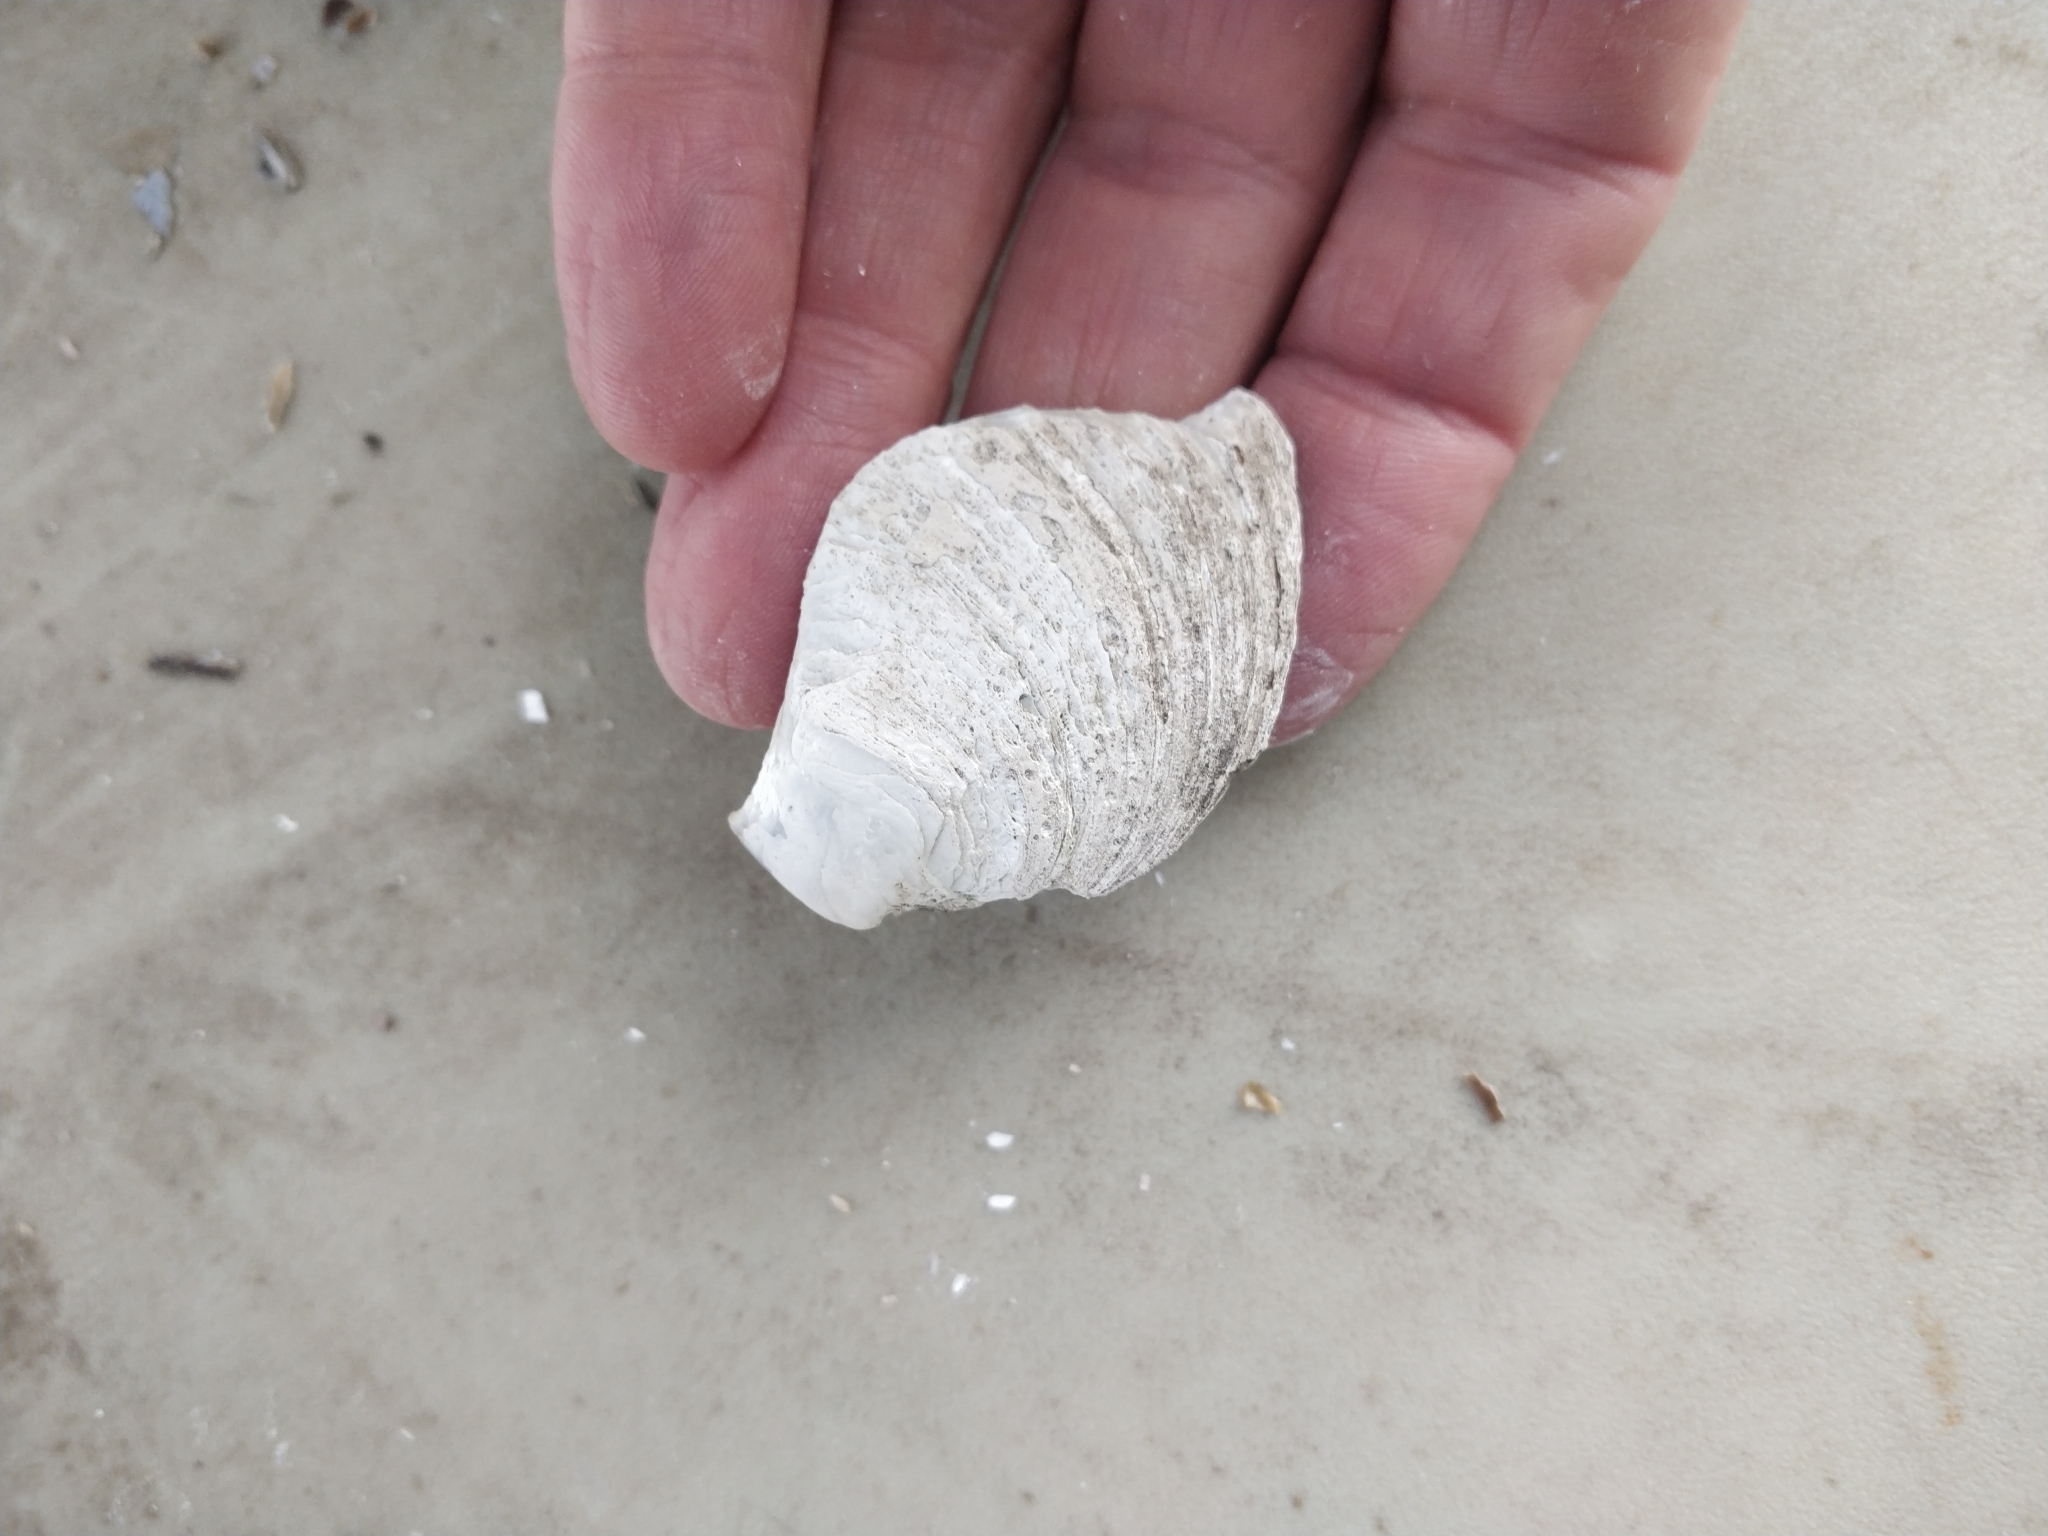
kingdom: Animalia
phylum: Mollusca
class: Bivalvia
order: Unionida
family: Unionidae
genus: Amblema
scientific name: Amblema plicata
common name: Threeridge
